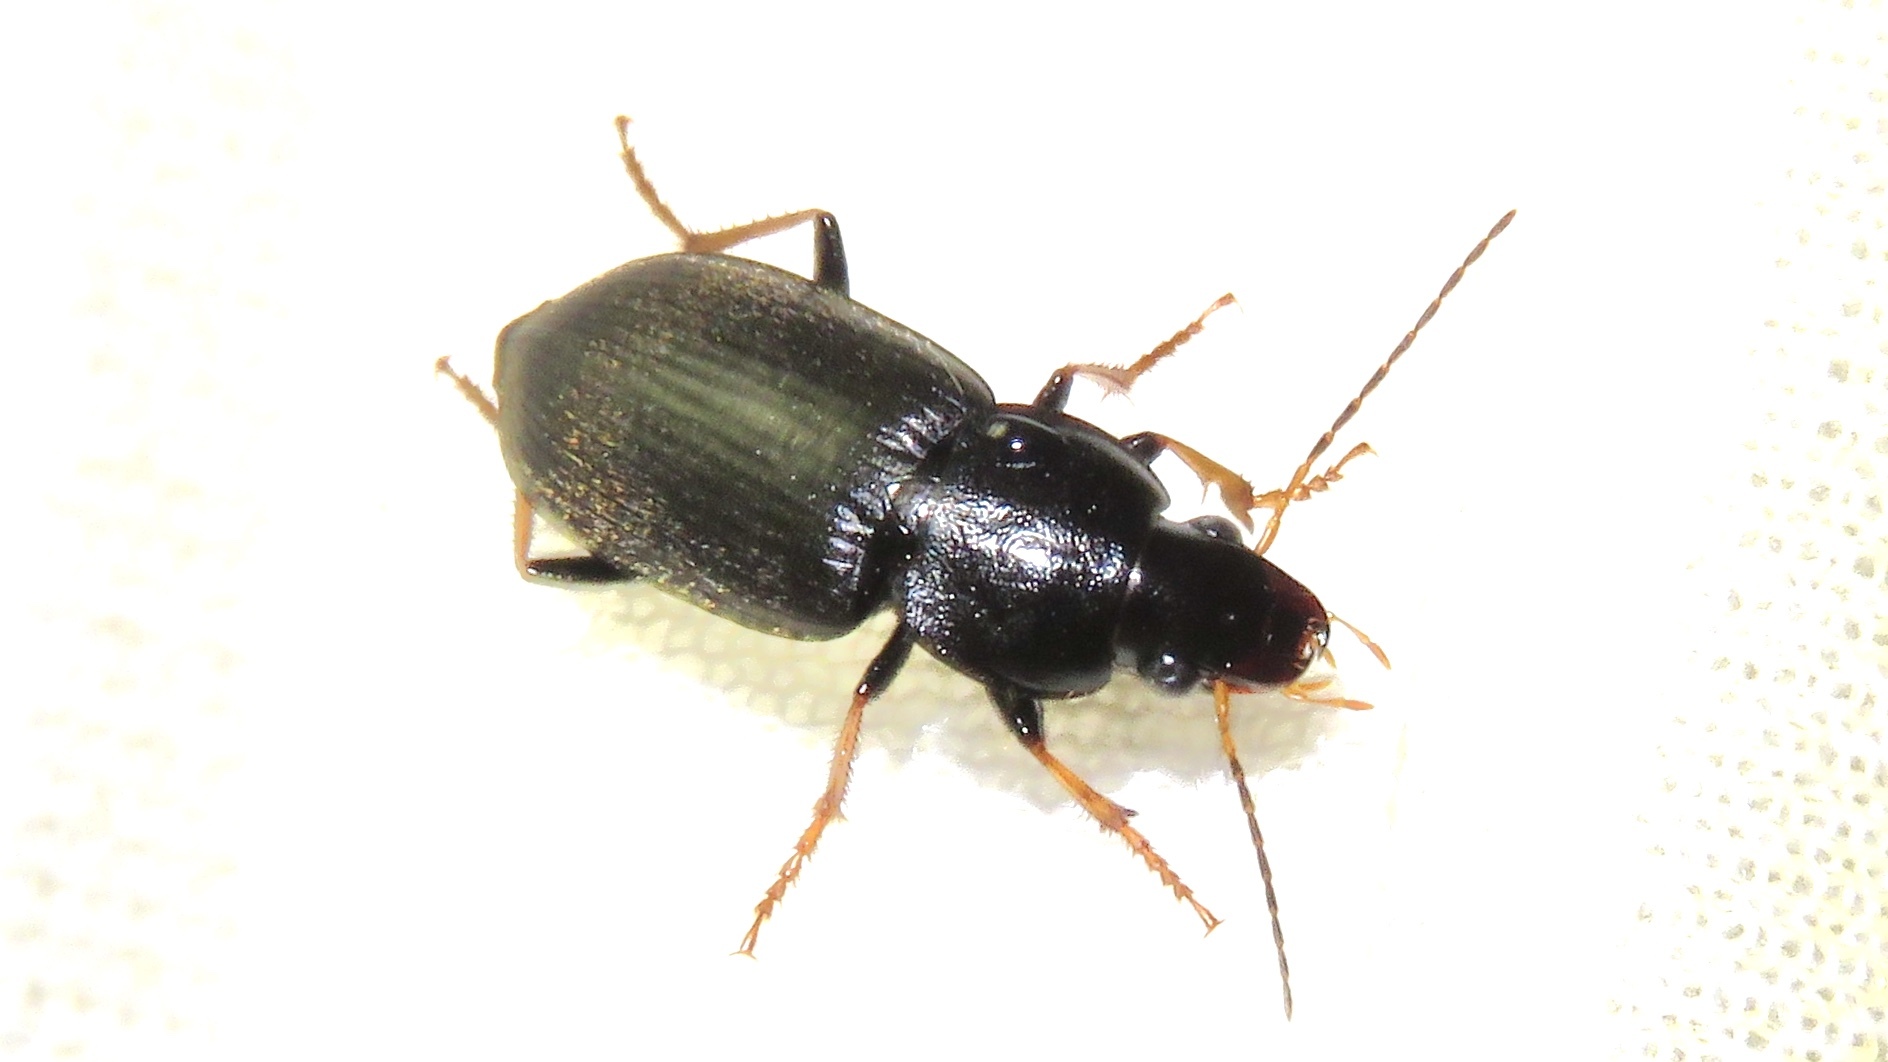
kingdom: Animalia
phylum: Arthropoda
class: Insecta
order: Coleoptera
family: Carabidae
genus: Amphasia
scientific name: Amphasia sericea
